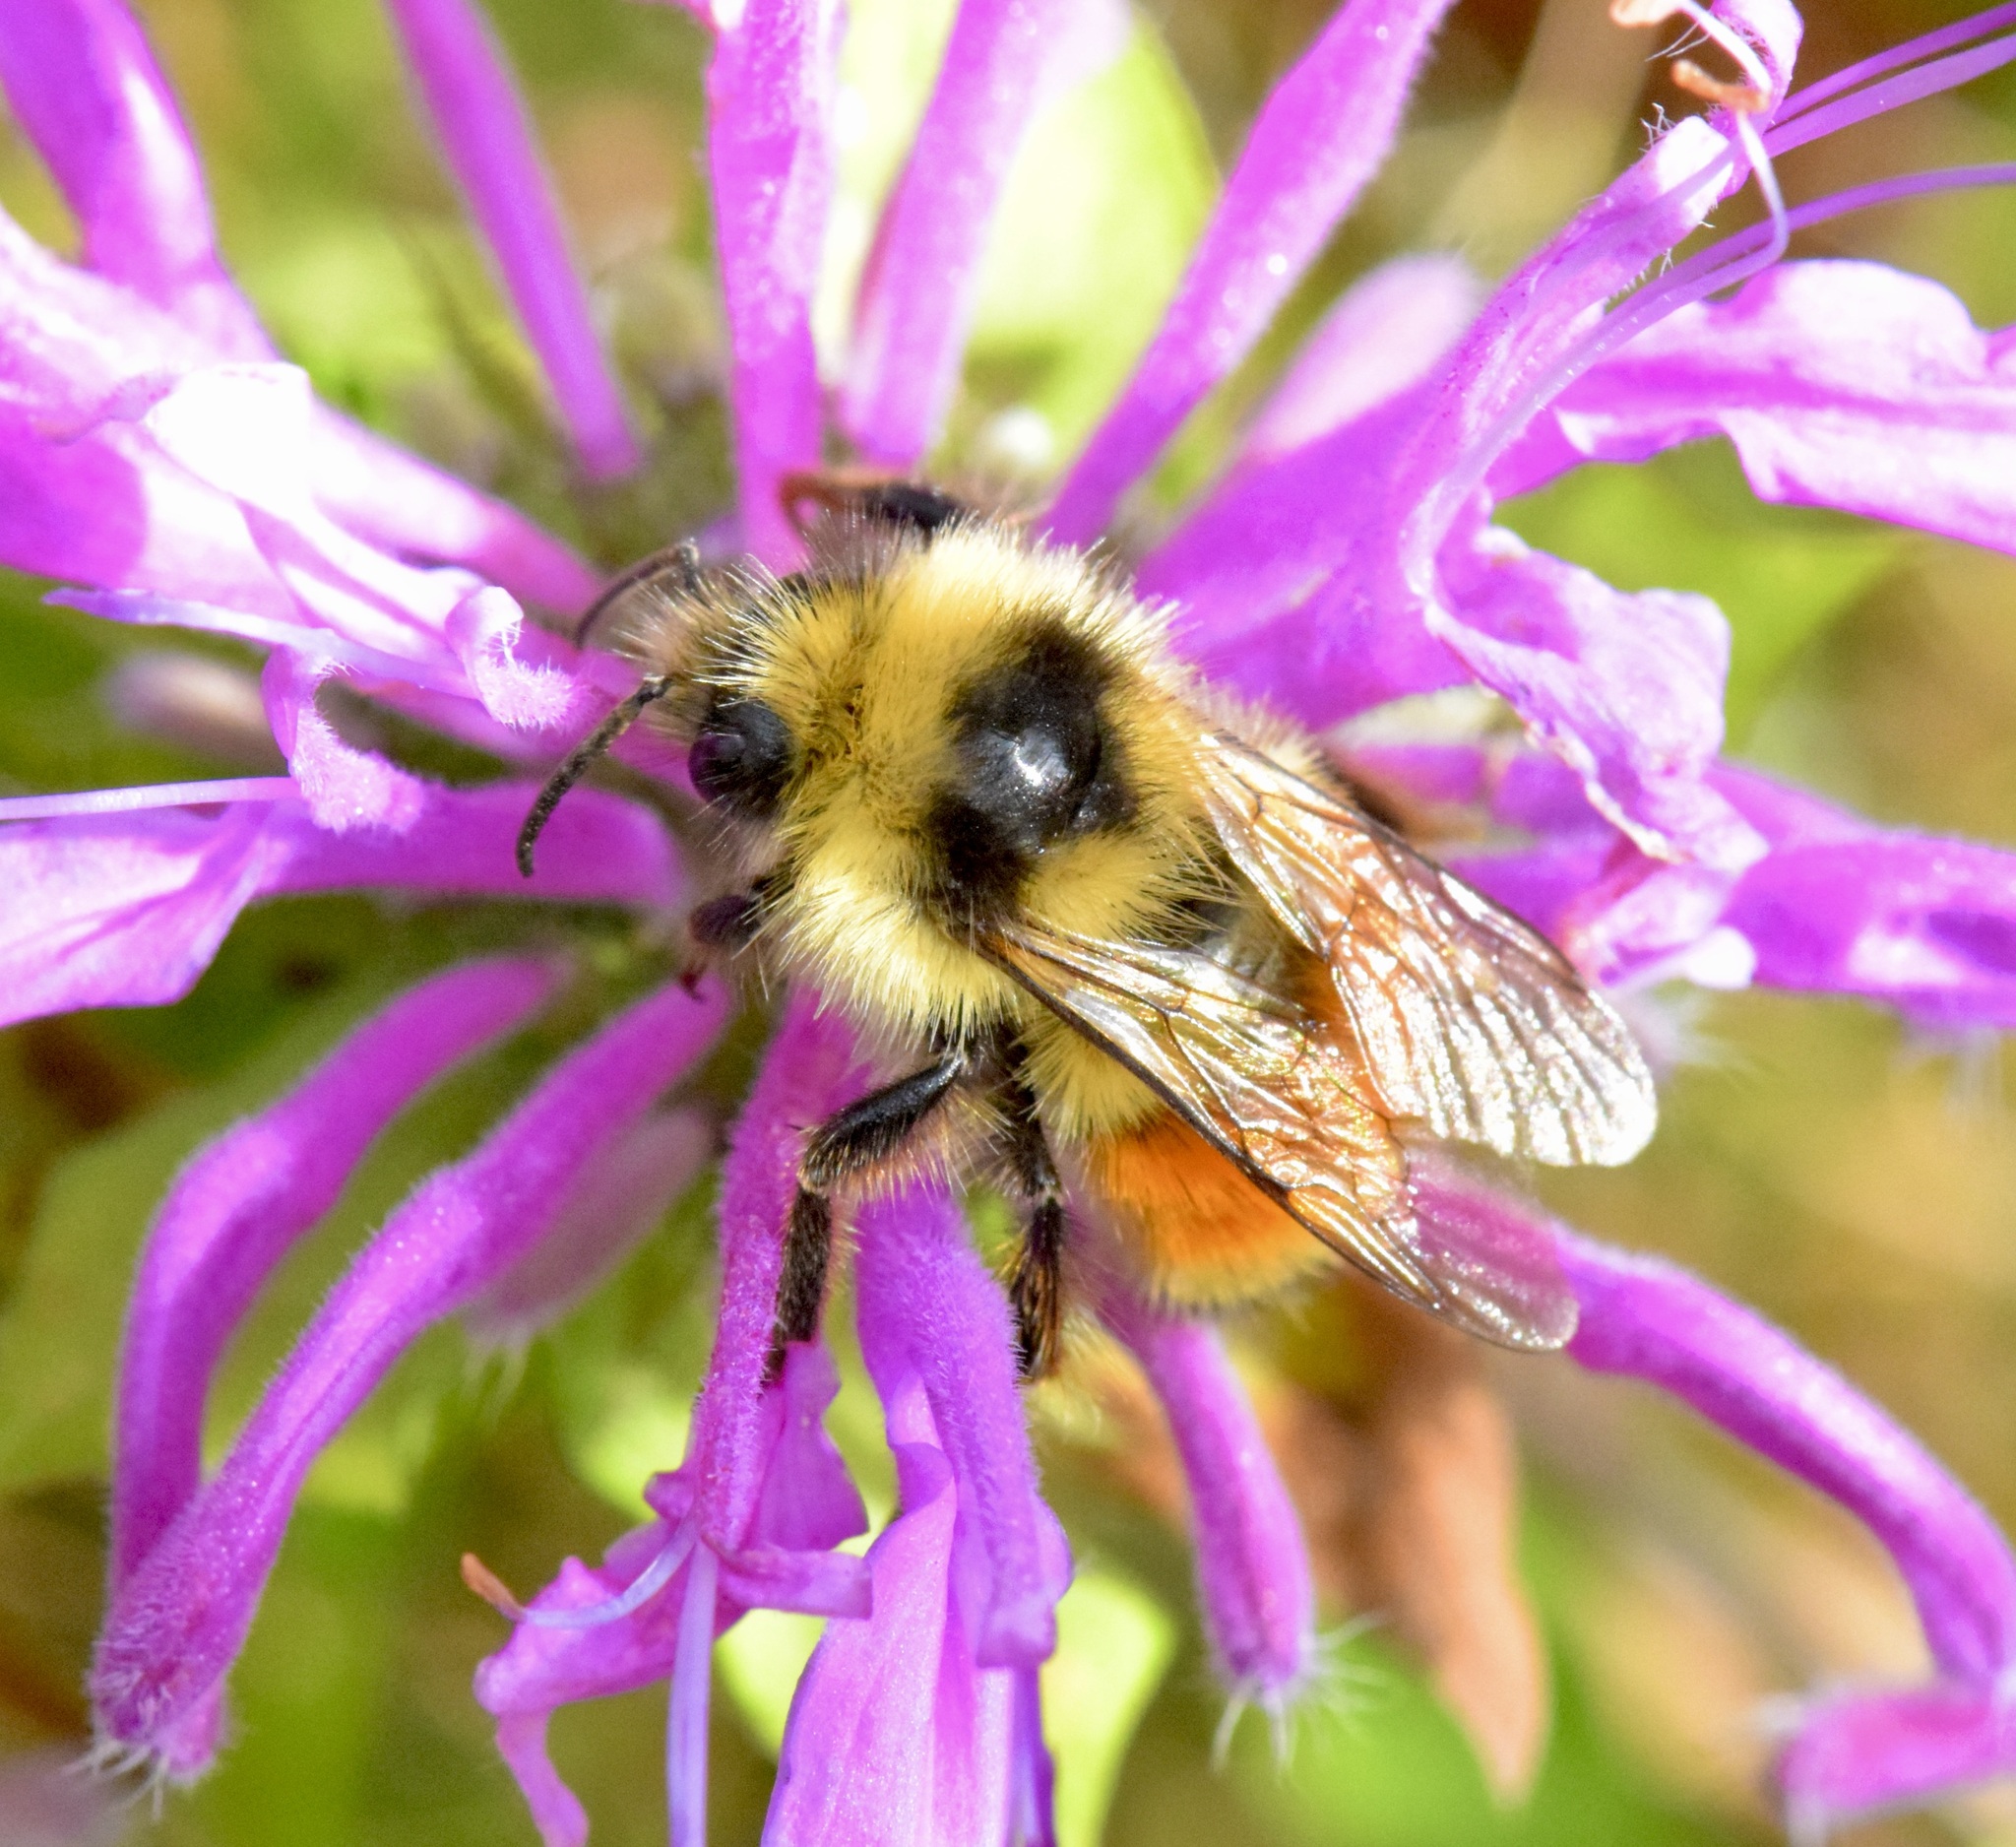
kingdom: Animalia
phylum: Arthropoda
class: Insecta
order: Hymenoptera
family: Apidae
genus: Bombus
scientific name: Bombus ternarius
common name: Tri-colored bumble bee
